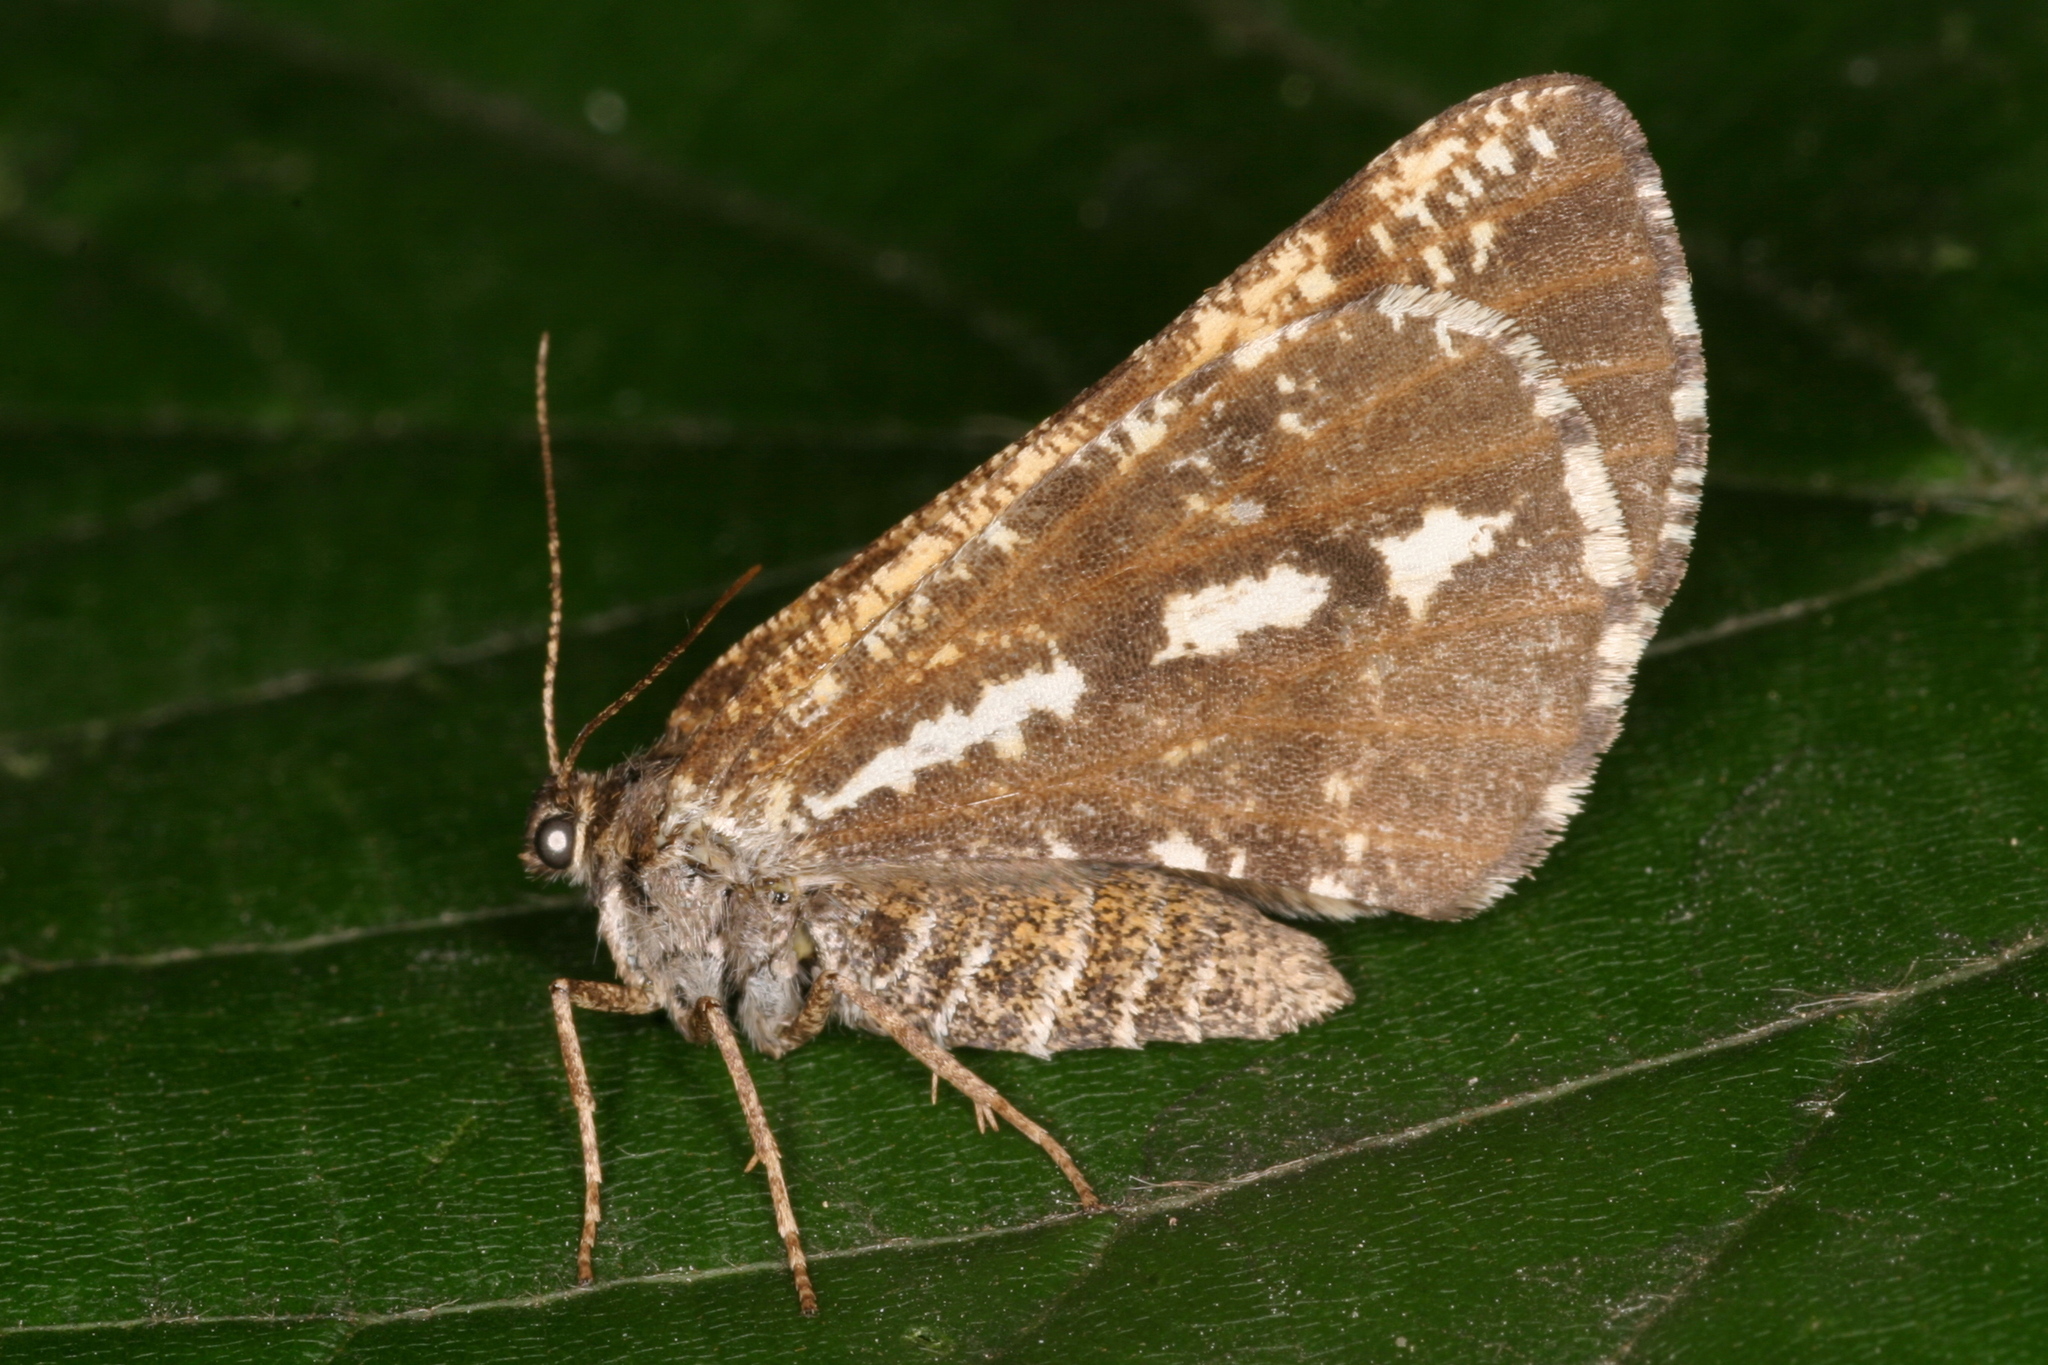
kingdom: Animalia
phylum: Arthropoda
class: Insecta
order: Lepidoptera
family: Geometridae
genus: Bupalus
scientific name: Bupalus piniaria
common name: Bordered white
